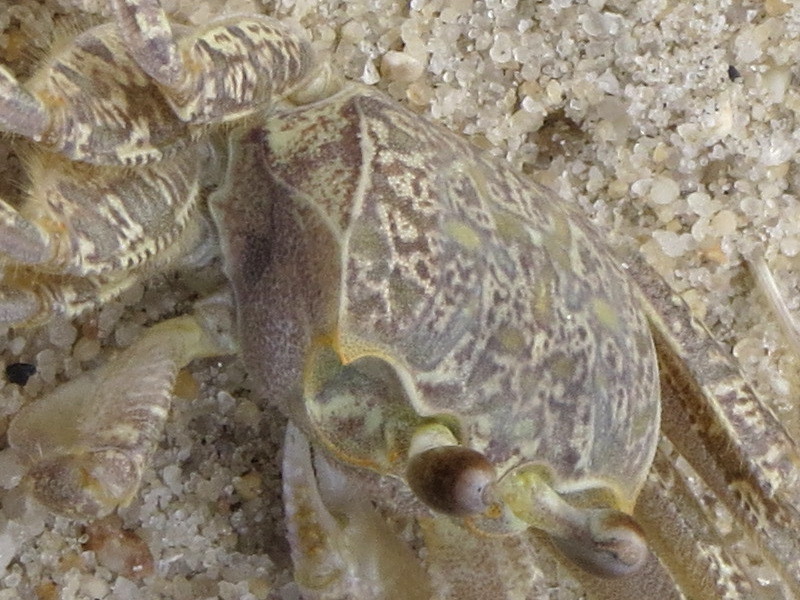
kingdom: Animalia
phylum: Arthropoda
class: Malacostraca
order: Decapoda
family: Ocypodidae
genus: Ocypode
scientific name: Ocypode quadrata
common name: Ghost crab
